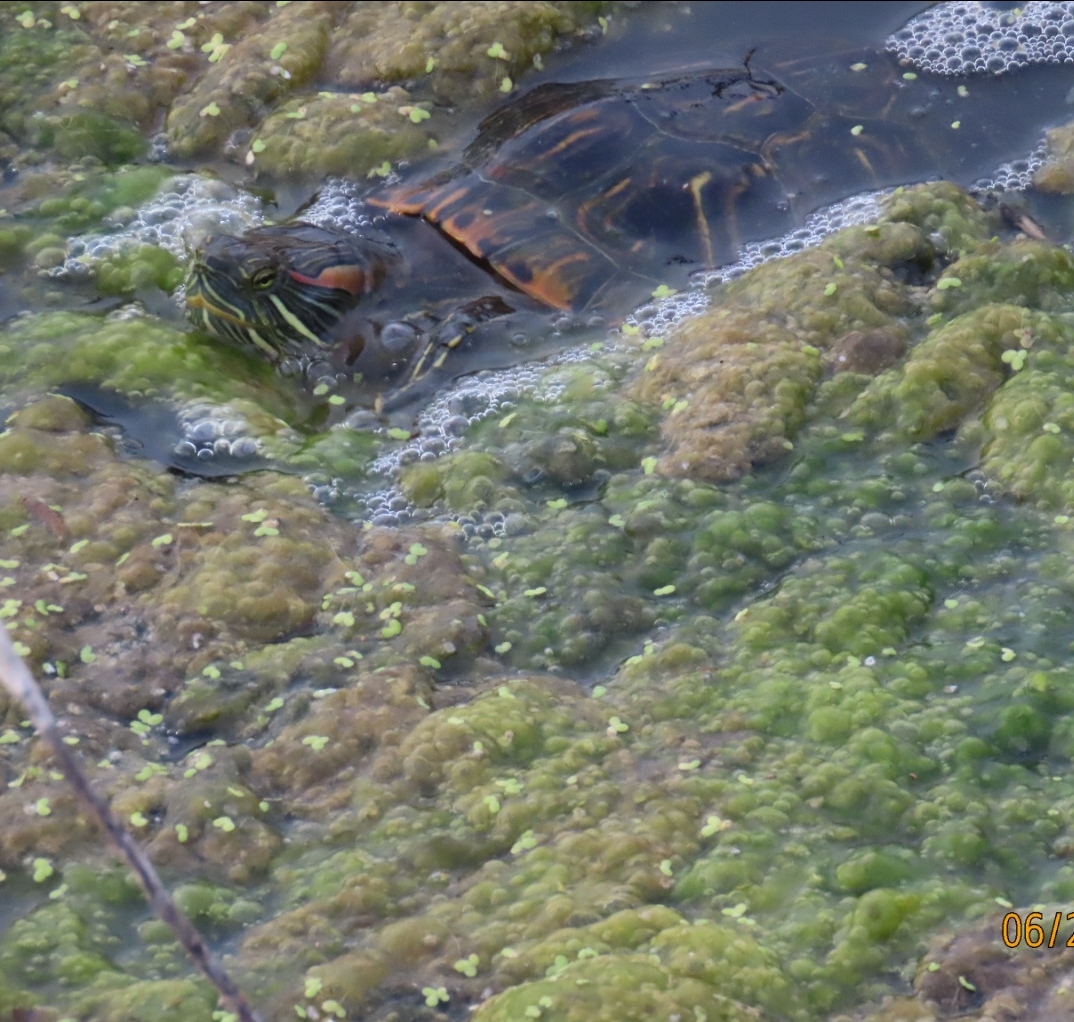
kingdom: Animalia
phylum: Chordata
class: Testudines
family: Emydidae
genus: Trachemys
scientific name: Trachemys scripta
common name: Slider
